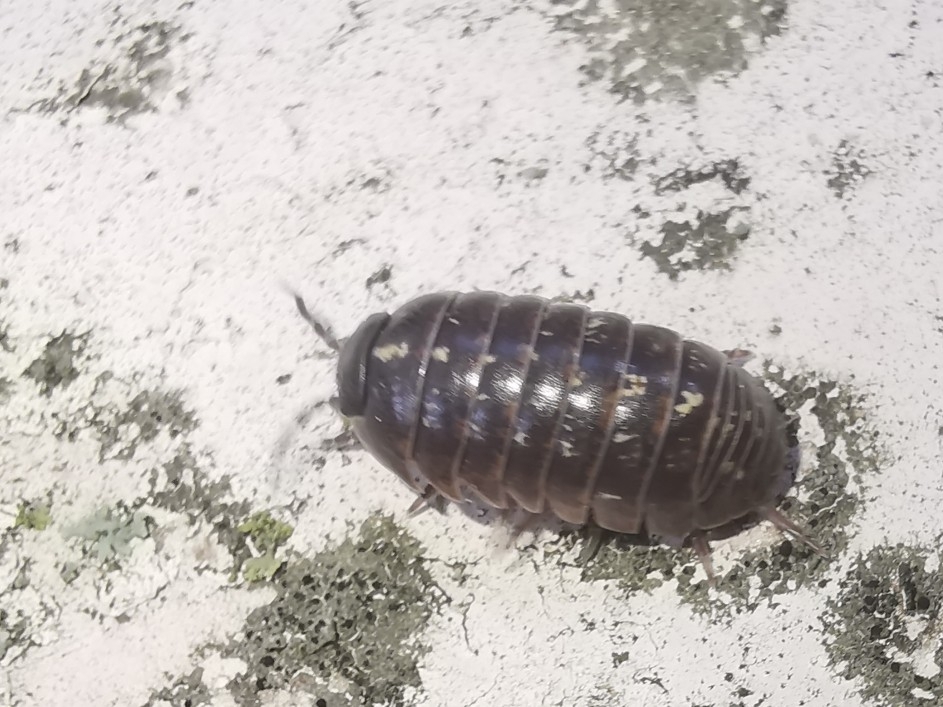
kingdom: Animalia
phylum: Arthropoda
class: Malacostraca
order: Isopoda
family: Armadillidiidae
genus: Armadillidium
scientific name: Armadillidium vulgare
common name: Common pill woodlouse
